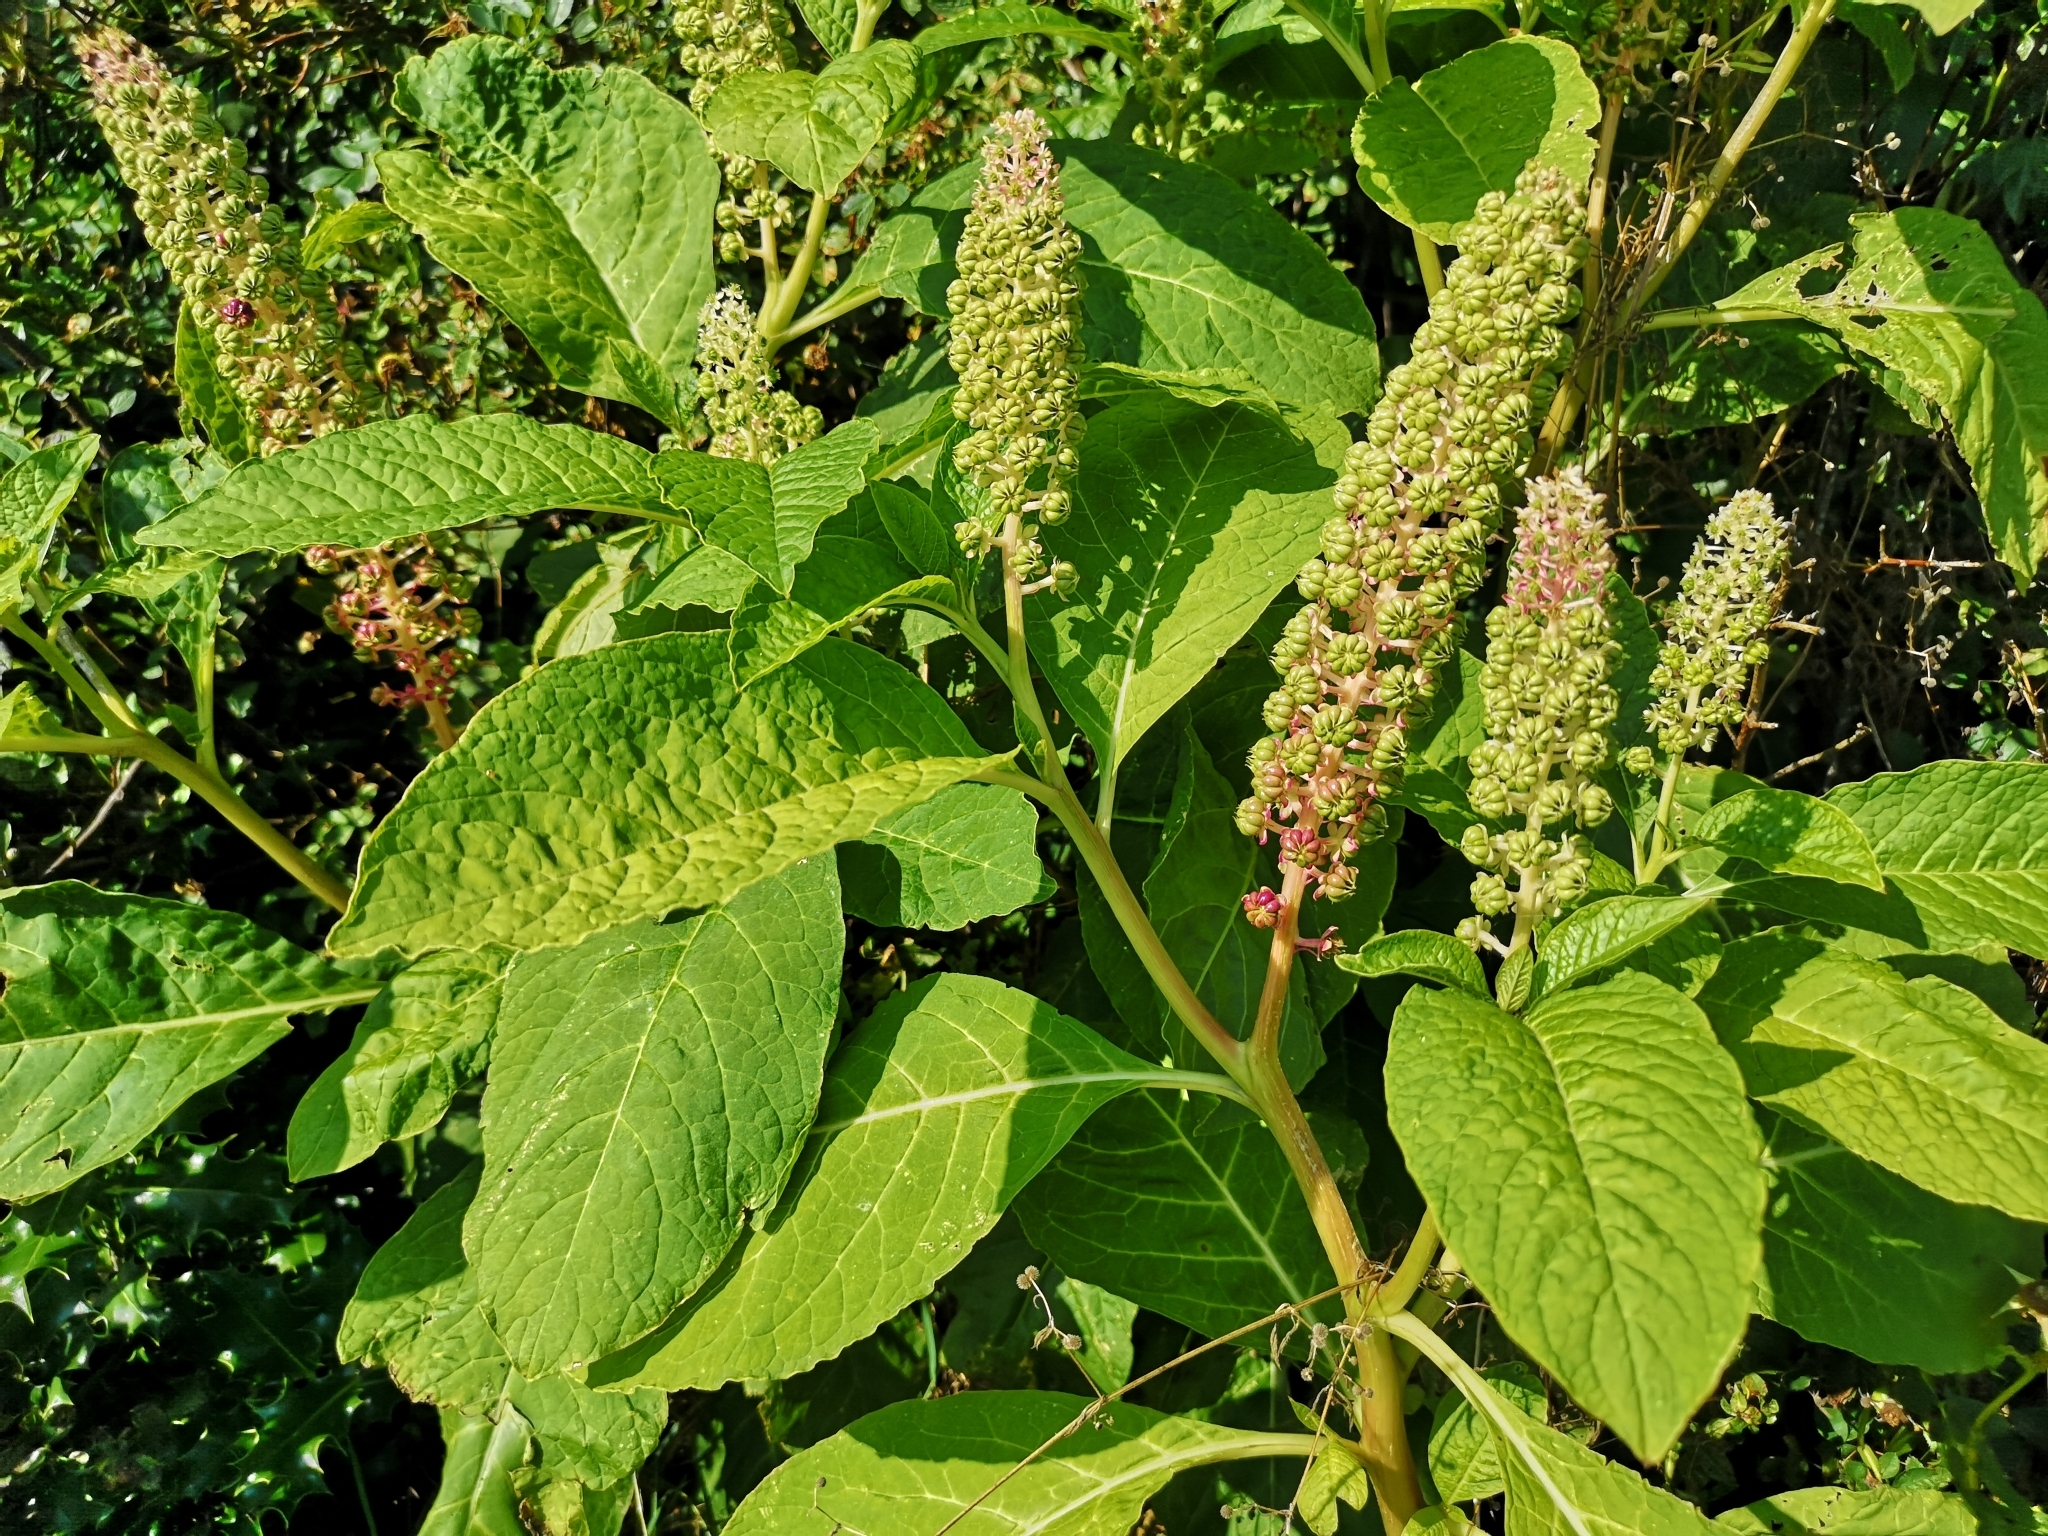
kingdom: Plantae
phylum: Tracheophyta
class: Magnoliopsida
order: Caryophyllales
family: Phytolaccaceae
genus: Phytolacca
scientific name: Phytolacca acinosa
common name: Indian pokeweed
